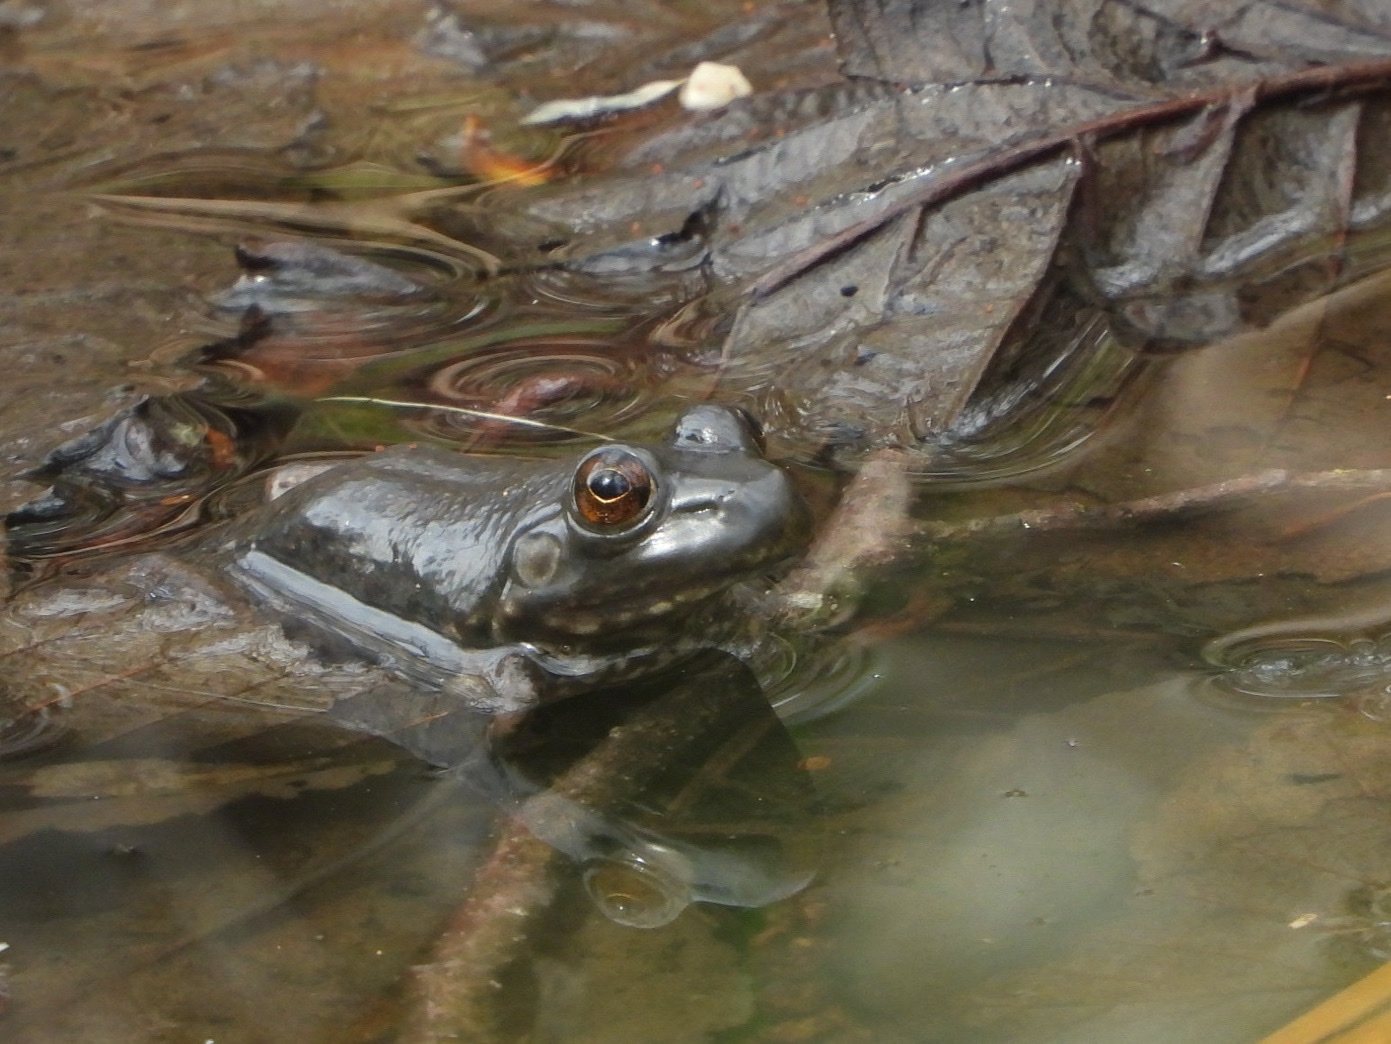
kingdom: Animalia
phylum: Chordata
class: Amphibia
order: Anura
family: Ranidae
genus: Lithobates
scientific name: Lithobates catesbeianus
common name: American bullfrog
